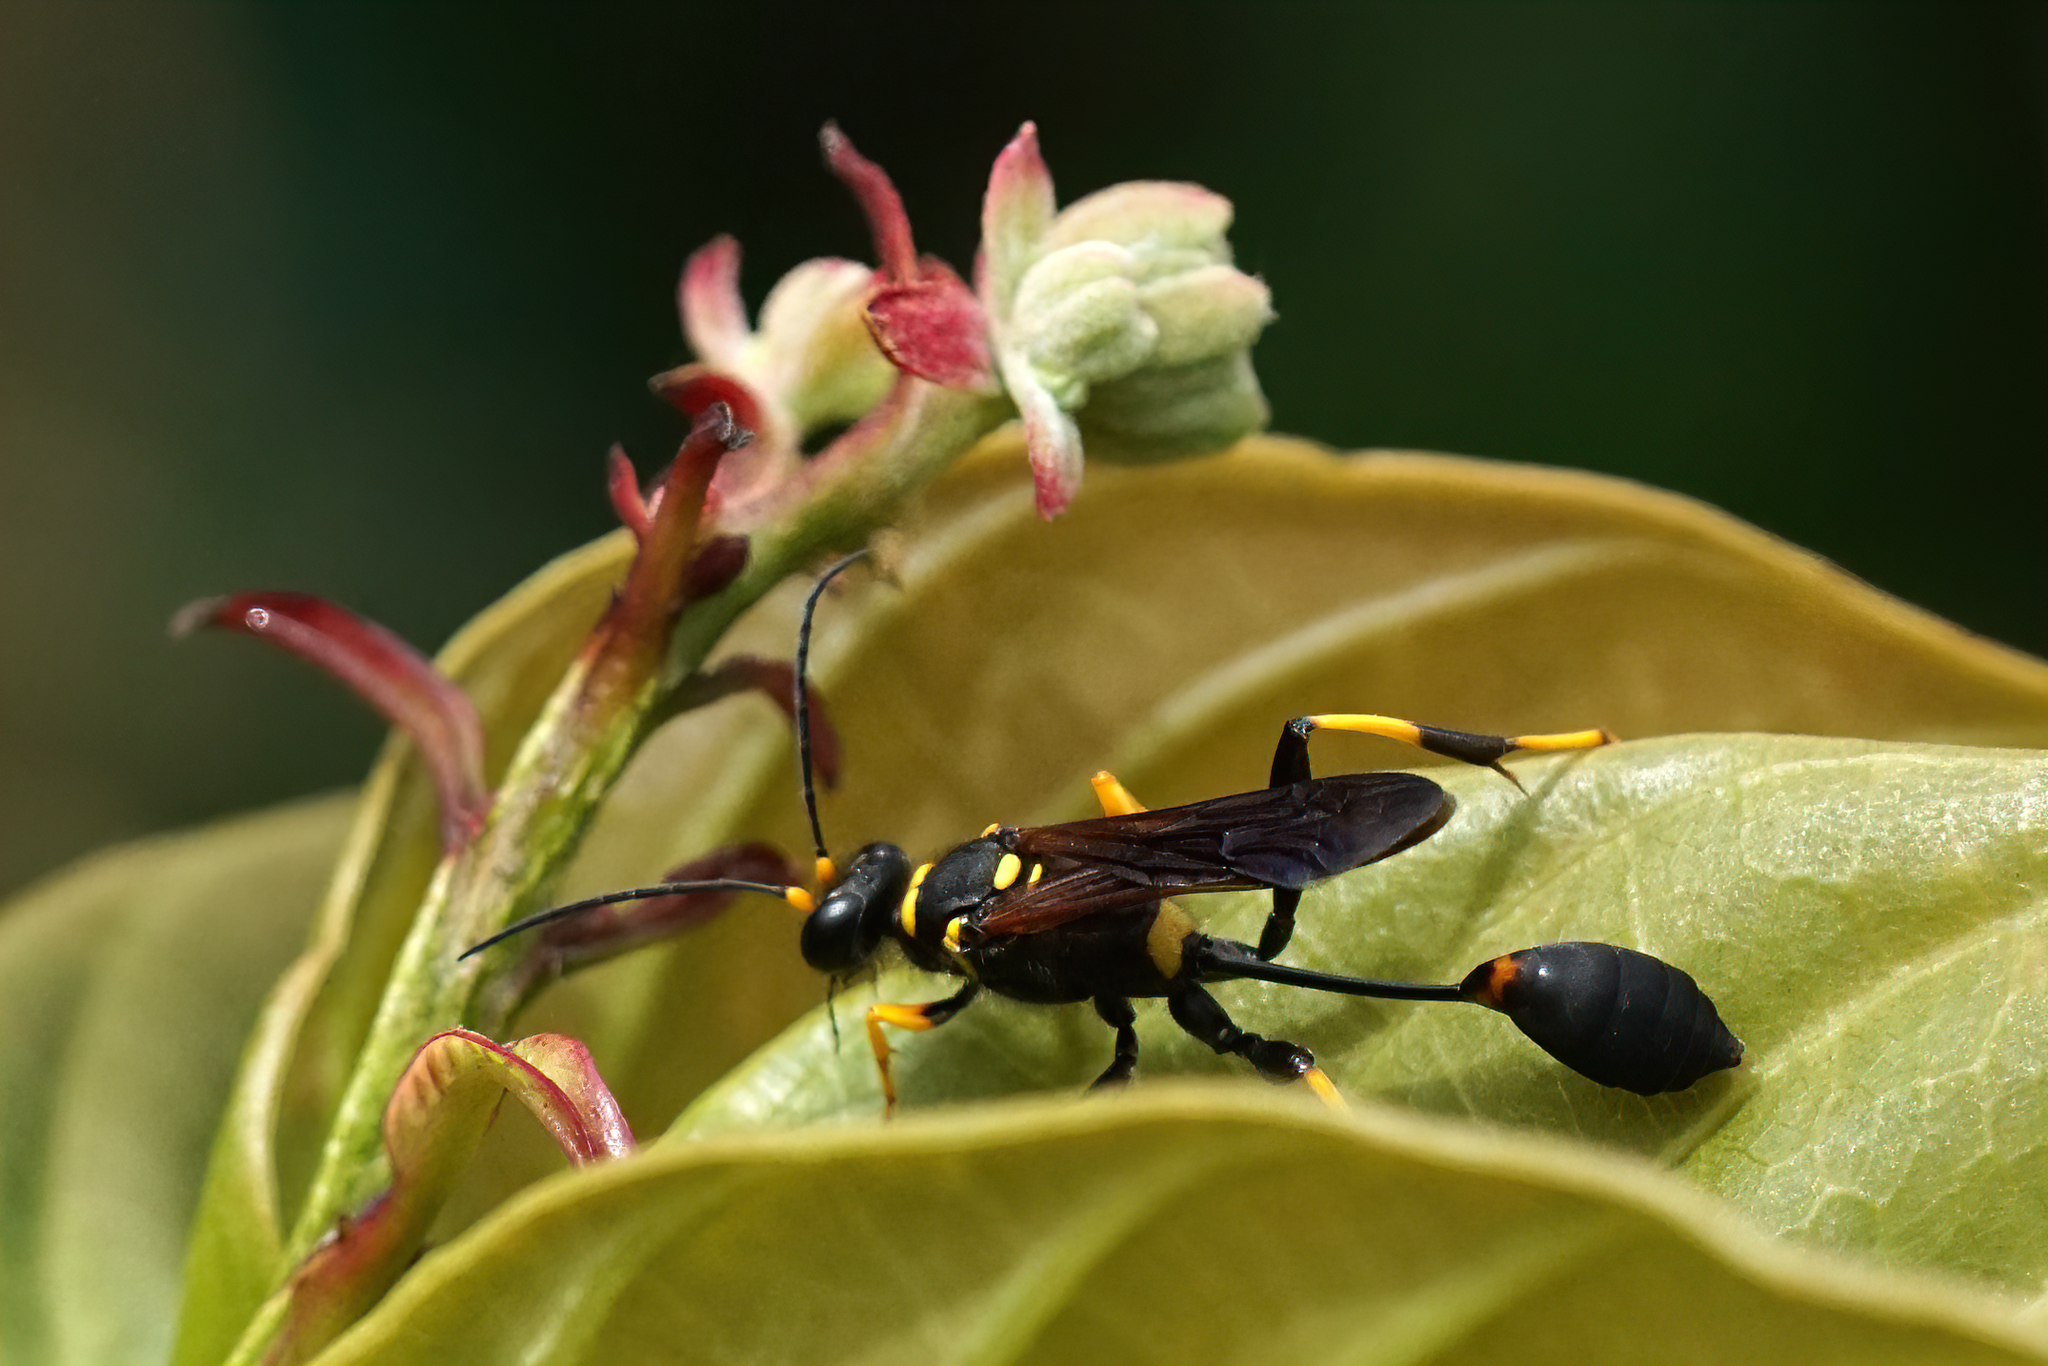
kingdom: Animalia
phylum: Arthropoda
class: Insecta
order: Hymenoptera
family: Sphecidae
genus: Sceliphron
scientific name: Sceliphron caementarium
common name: Mud dauber
